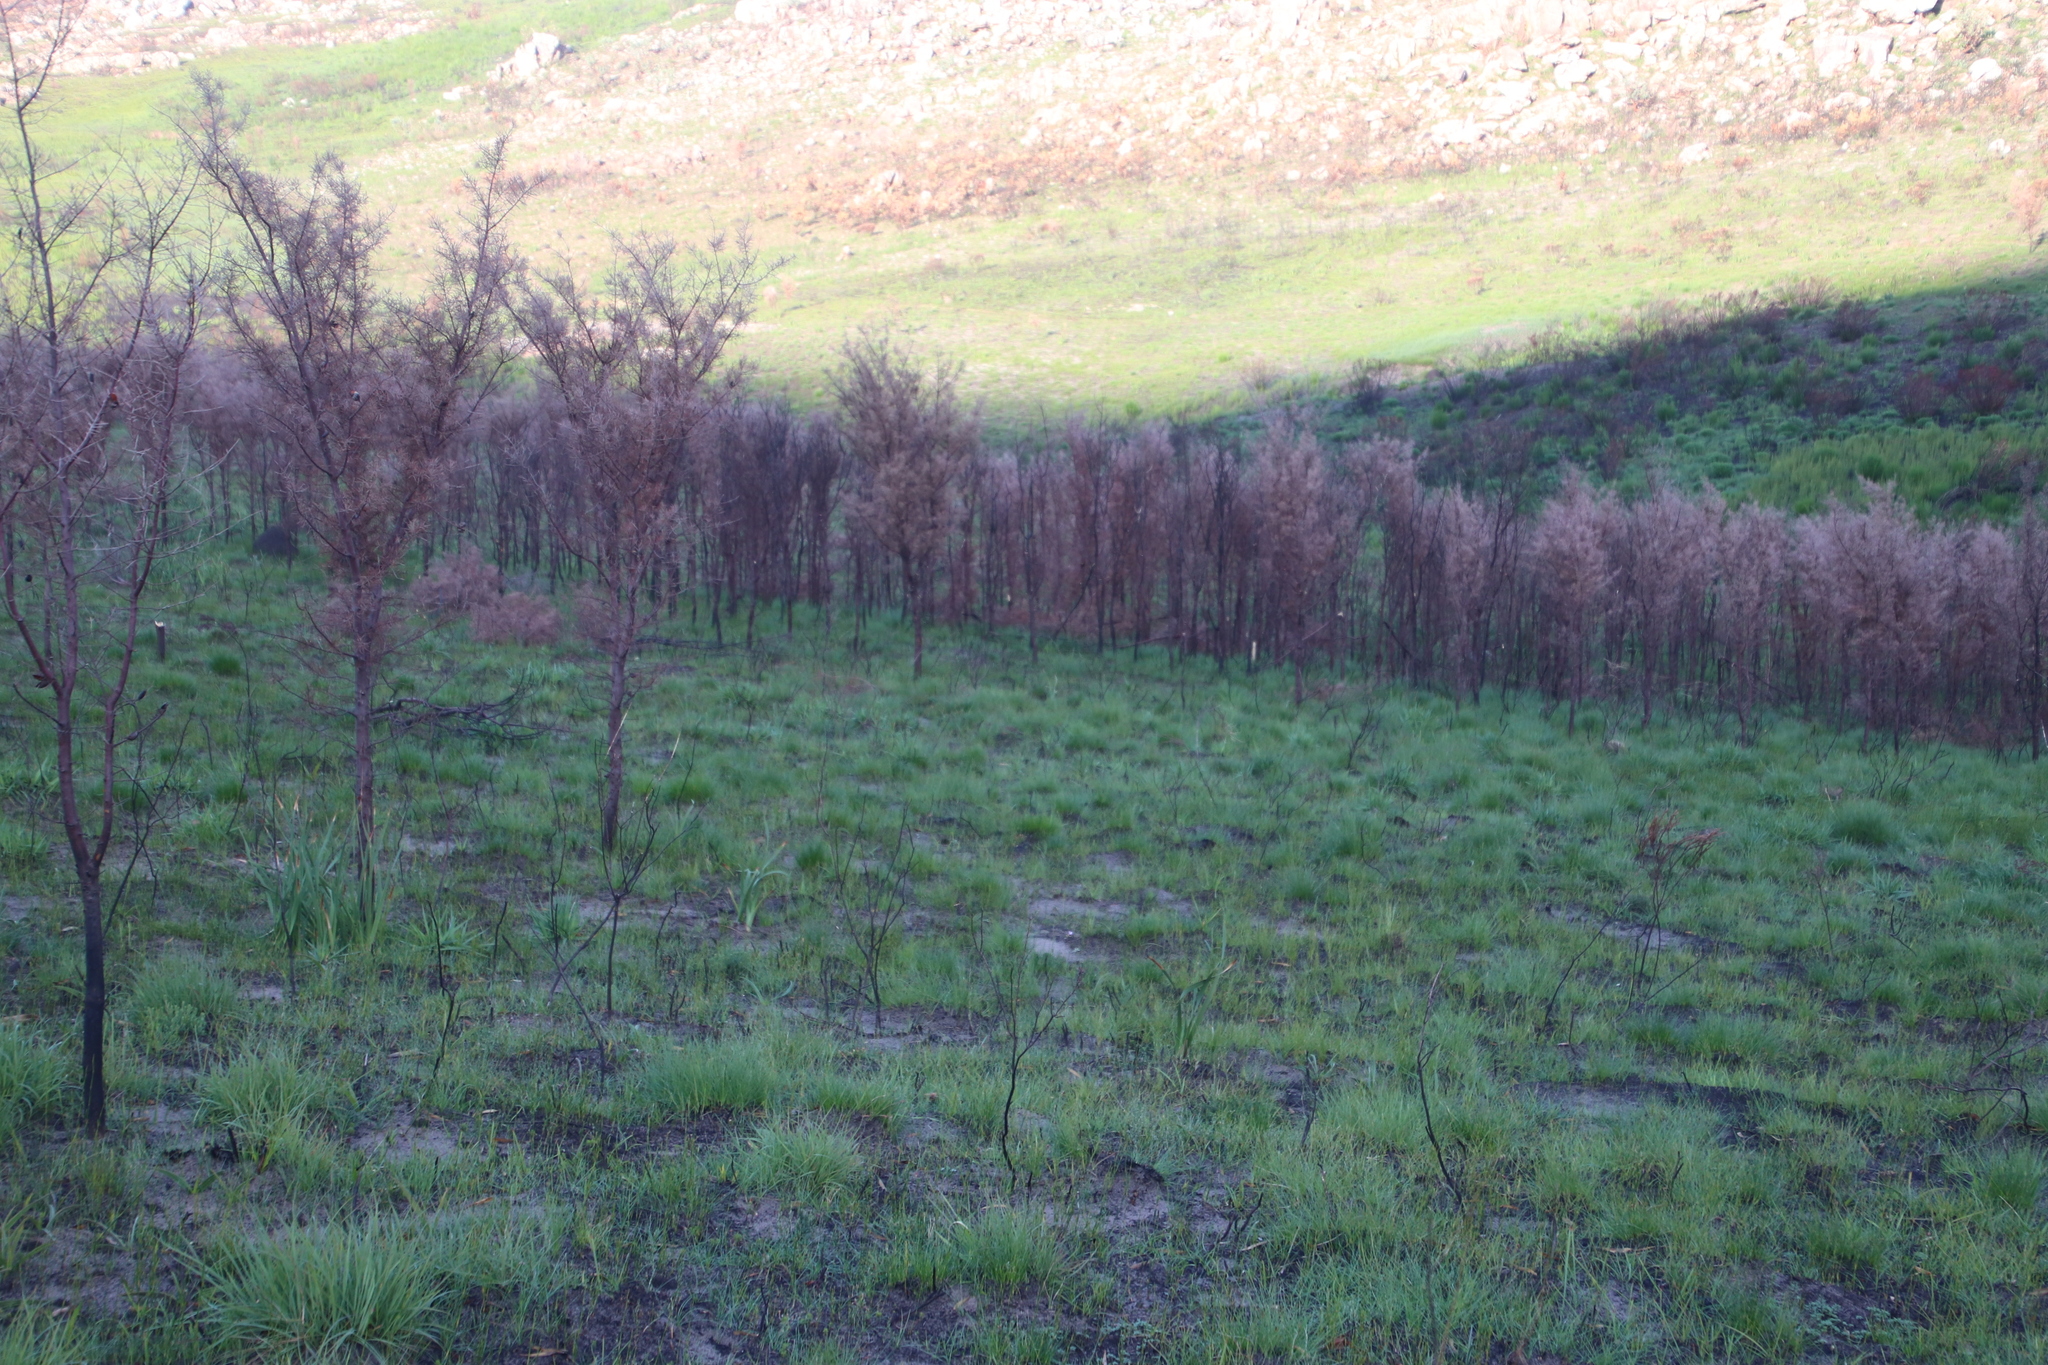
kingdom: Plantae
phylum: Tracheophyta
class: Magnoliopsida
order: Proteales
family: Proteaceae
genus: Hakea
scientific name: Hakea sericea
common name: Needle bush
